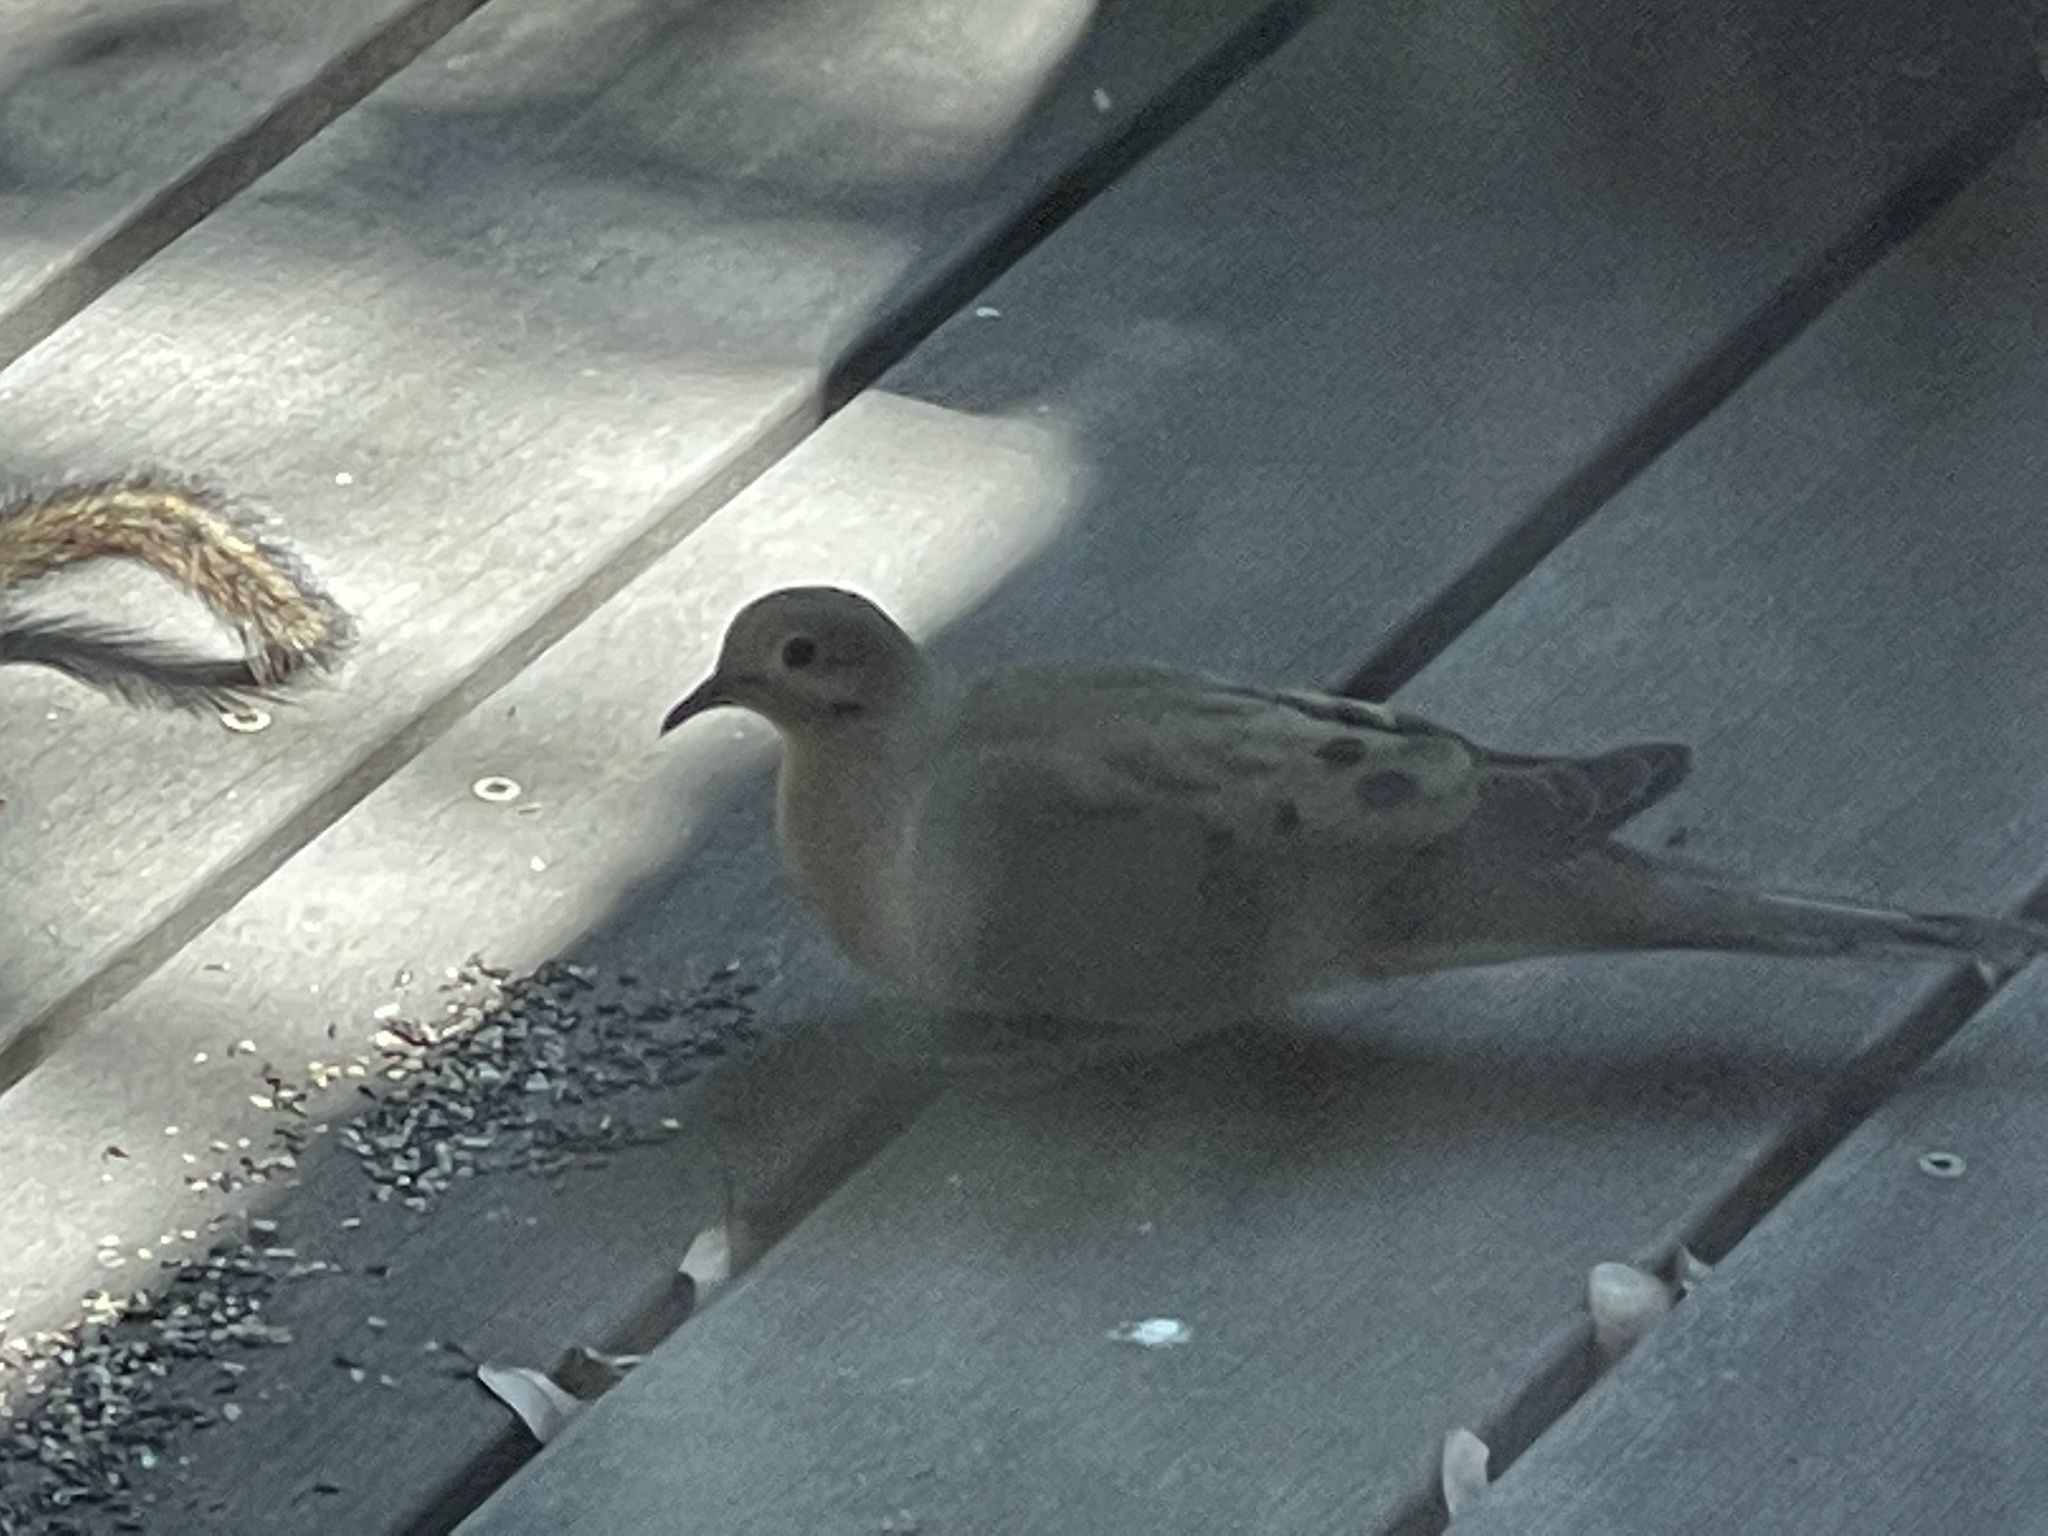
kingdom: Animalia
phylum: Chordata
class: Aves
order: Columbiformes
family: Columbidae
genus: Zenaida
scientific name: Zenaida macroura
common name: Mourning dove
